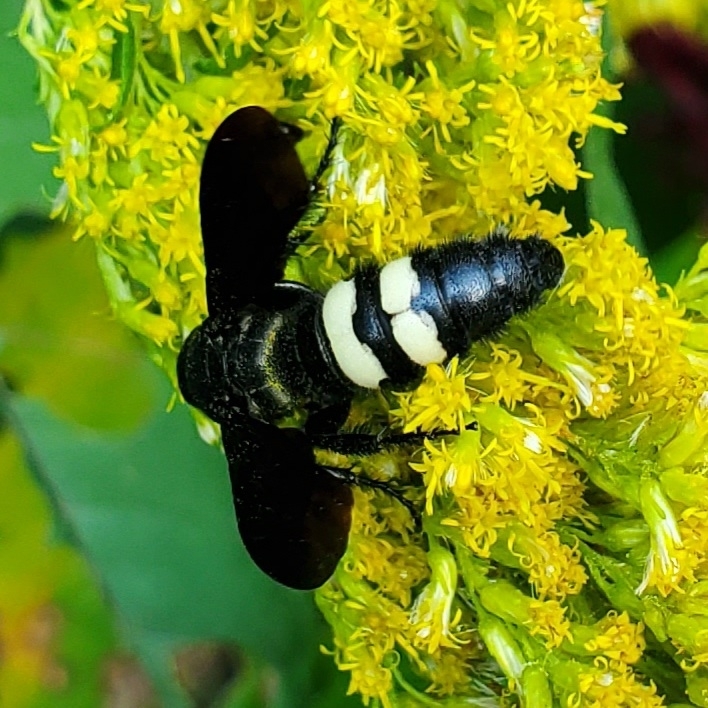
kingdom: Animalia
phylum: Arthropoda
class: Insecta
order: Hymenoptera
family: Scoliidae
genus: Scolia
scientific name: Scolia bicincta
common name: Double-banded scoliid wasp
